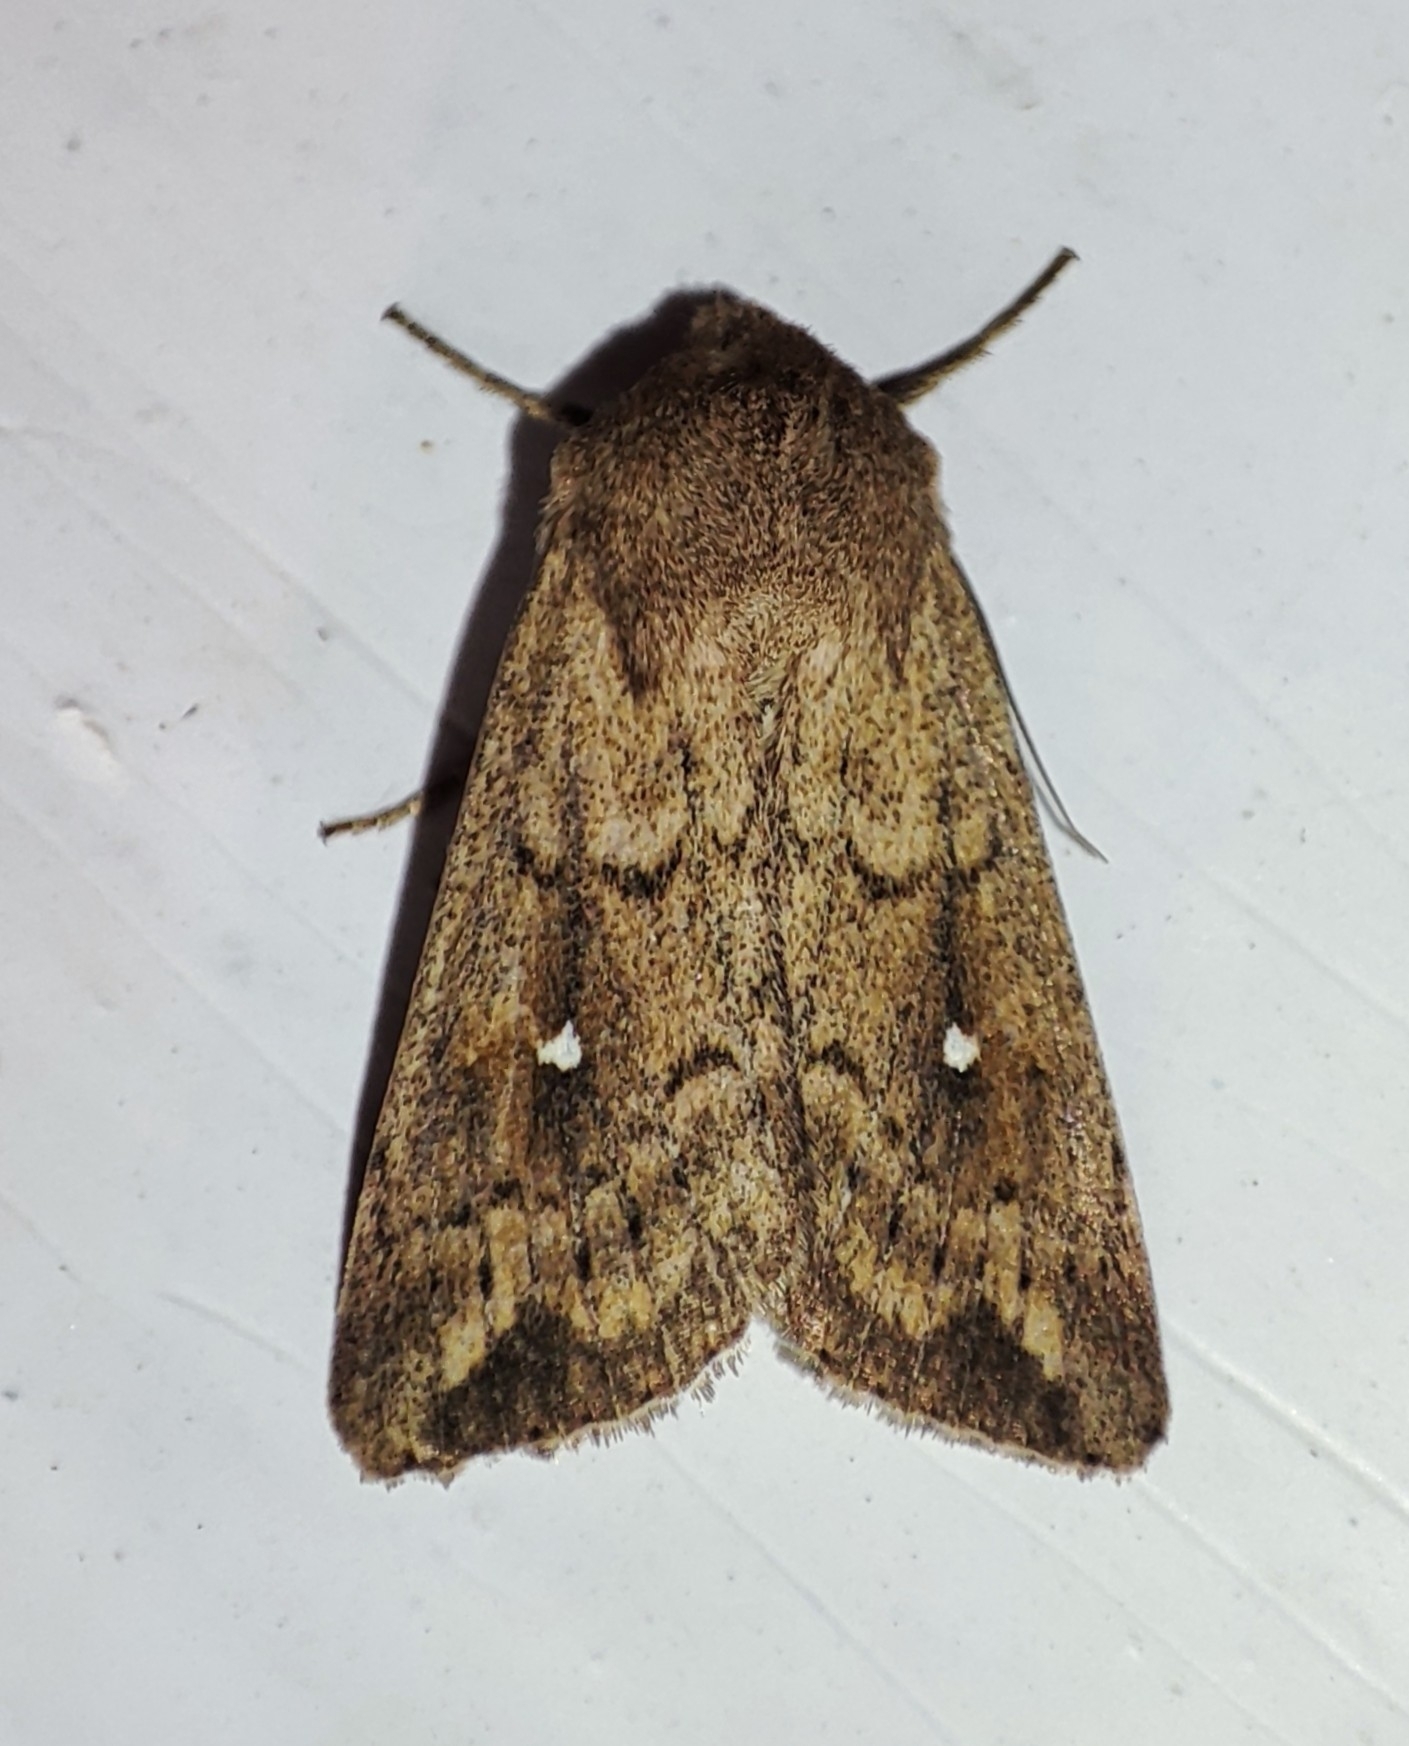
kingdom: Animalia
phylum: Arthropoda
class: Insecta
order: Lepidoptera
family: Noctuidae
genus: Mythimna
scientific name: Mythimna albipuncta
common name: White-point
